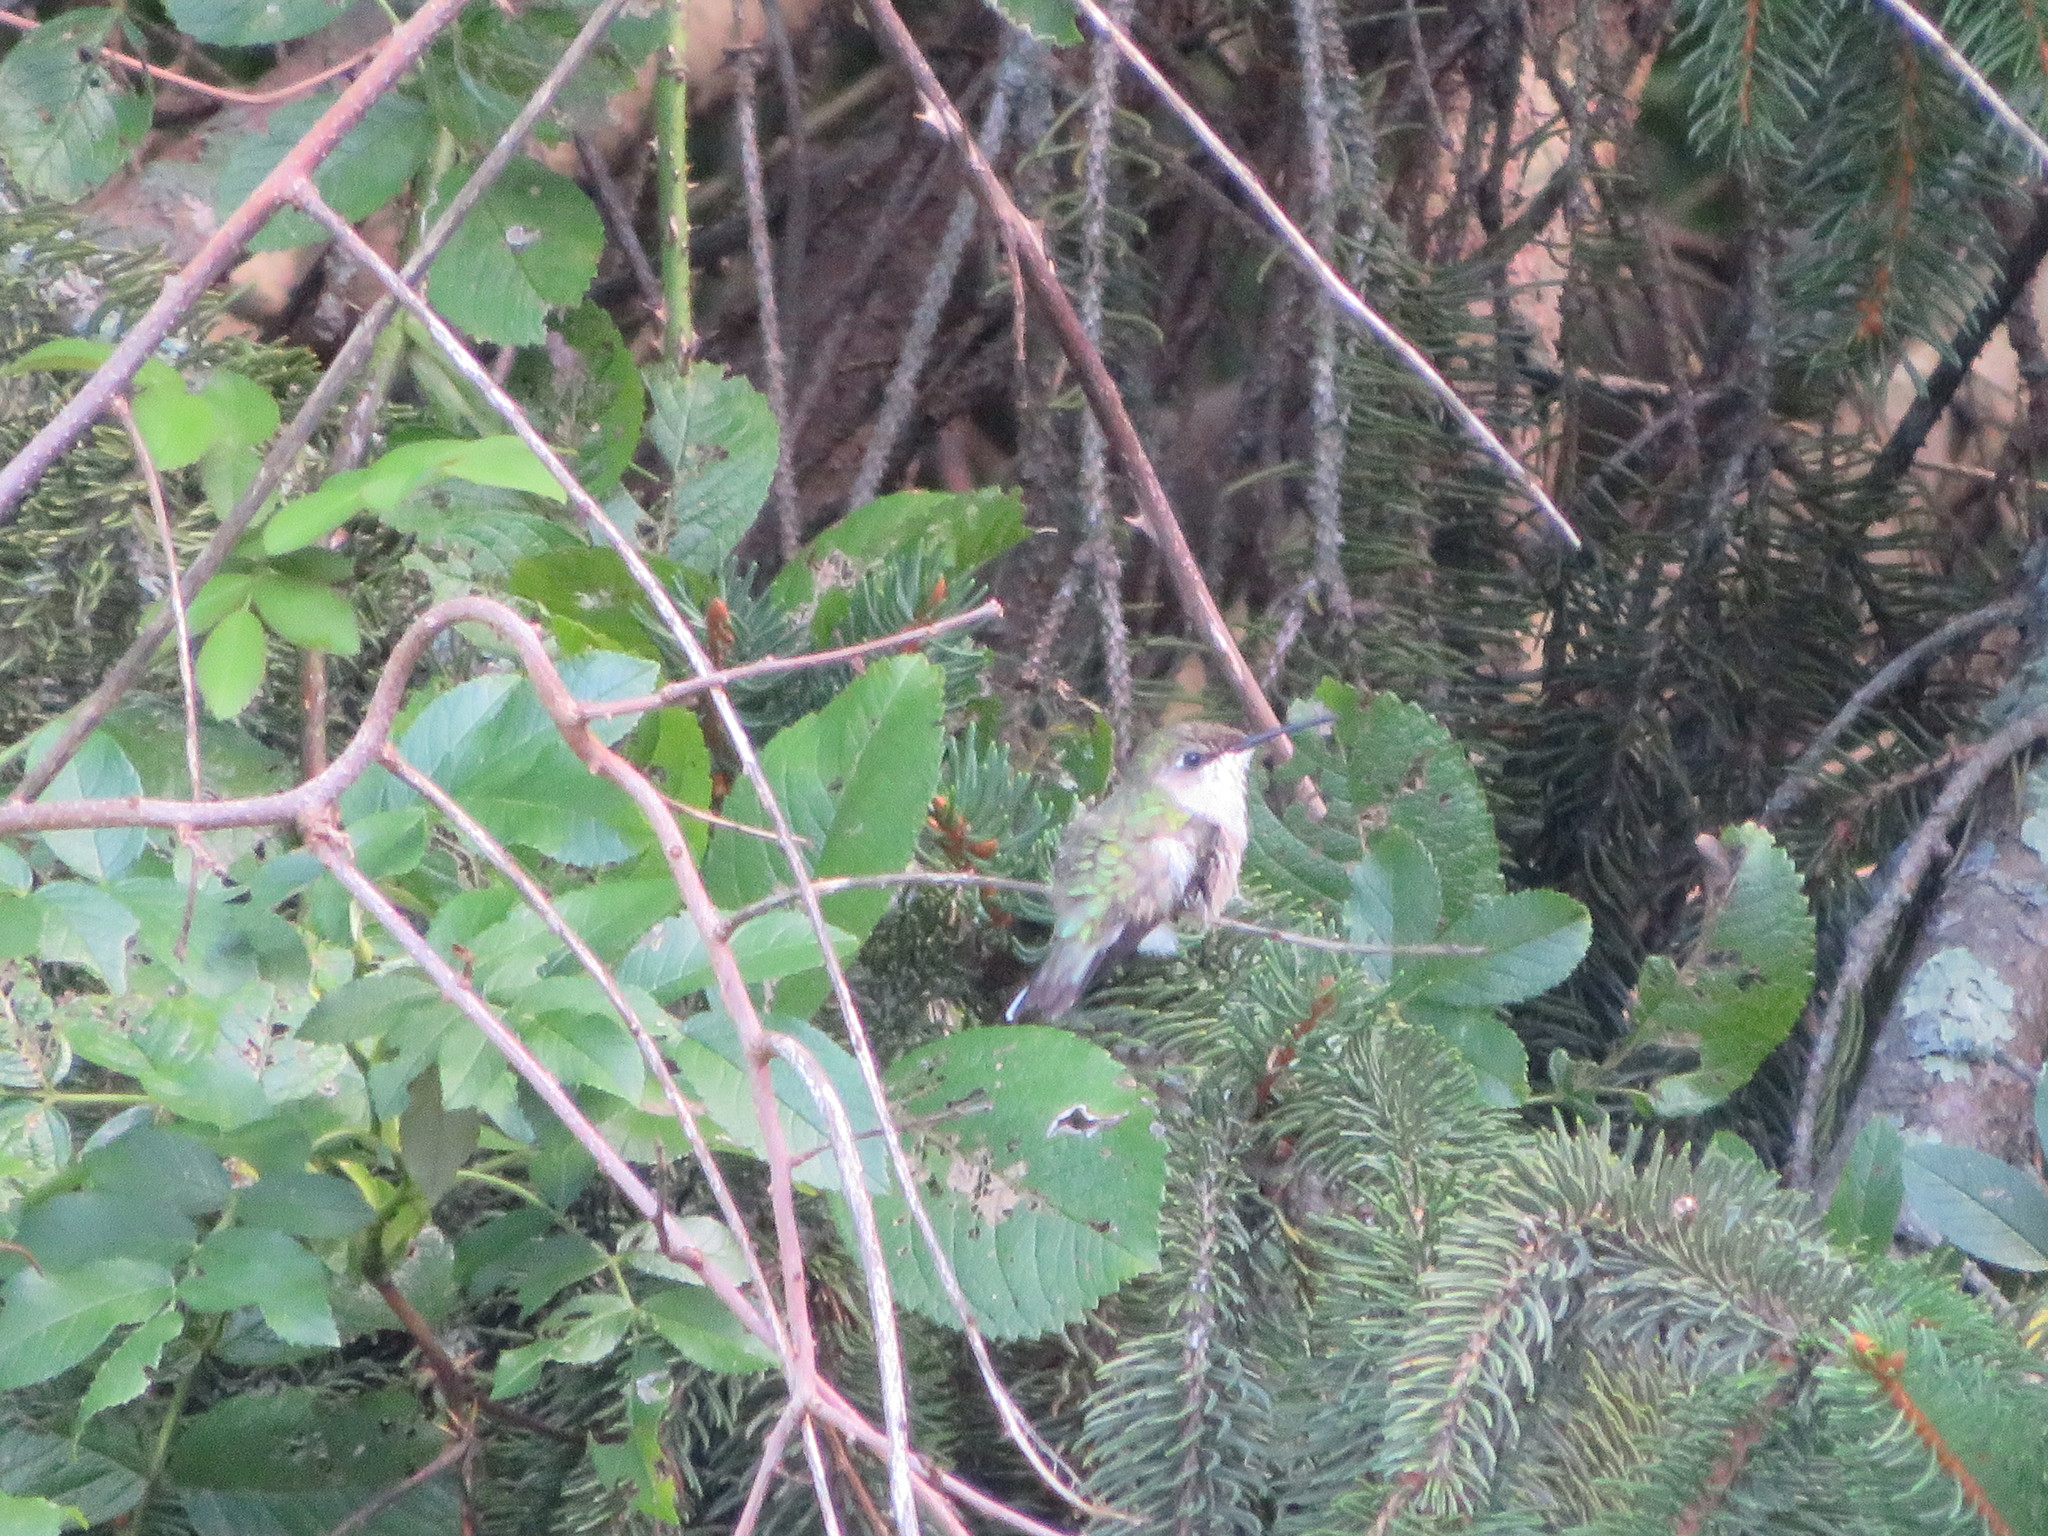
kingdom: Animalia
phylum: Chordata
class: Aves
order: Apodiformes
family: Trochilidae
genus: Archilochus
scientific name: Archilochus colubris
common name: Ruby-throated hummingbird
